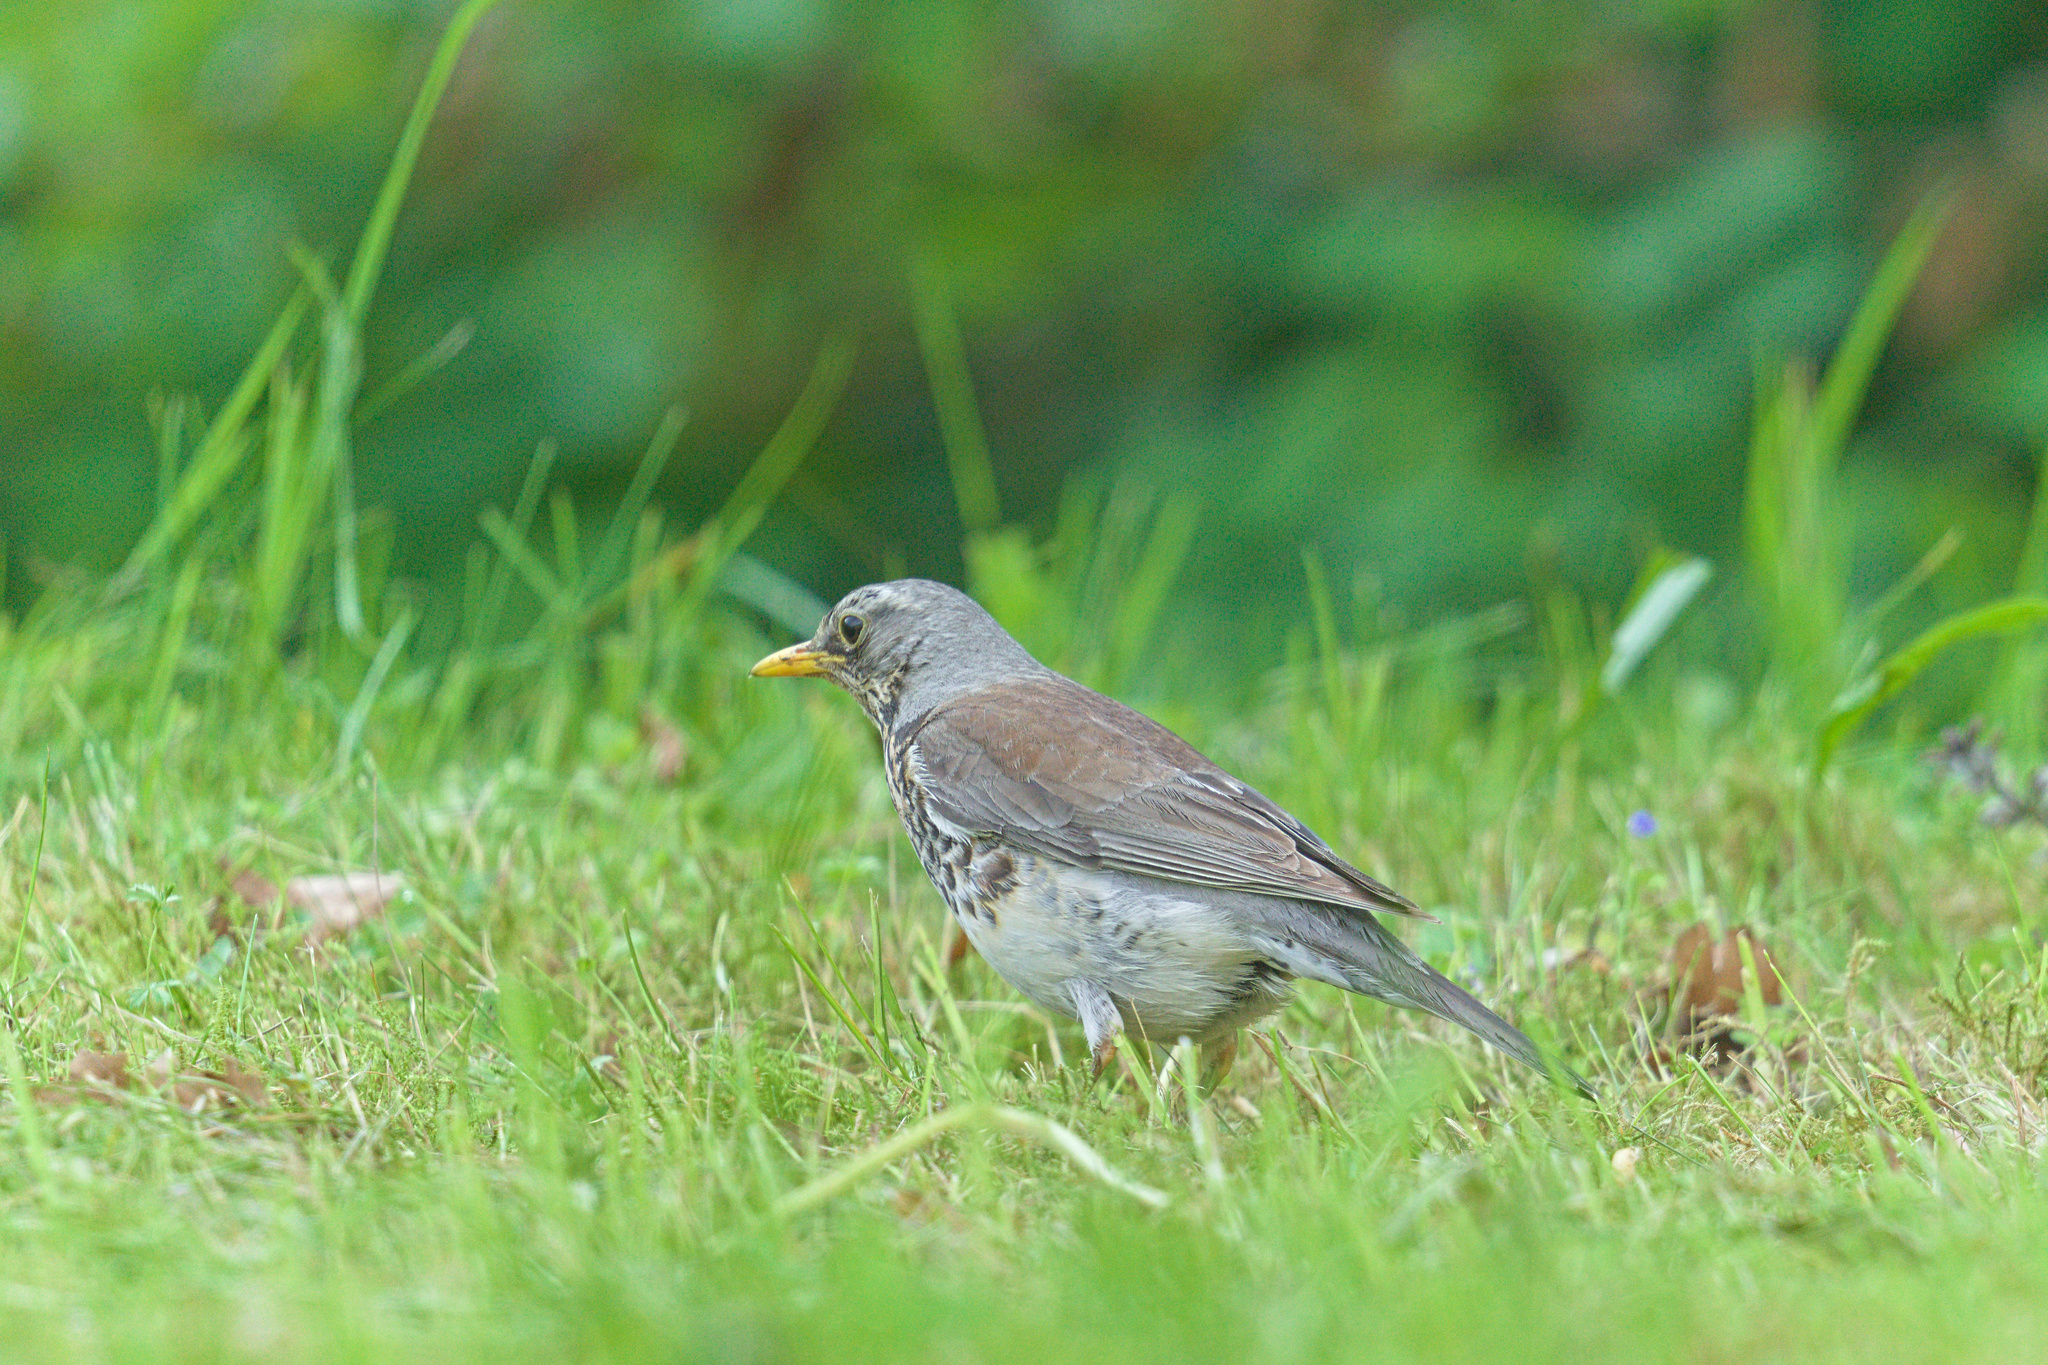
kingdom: Animalia
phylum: Chordata
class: Aves
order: Passeriformes
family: Turdidae
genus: Turdus
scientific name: Turdus pilaris
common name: Fieldfare
